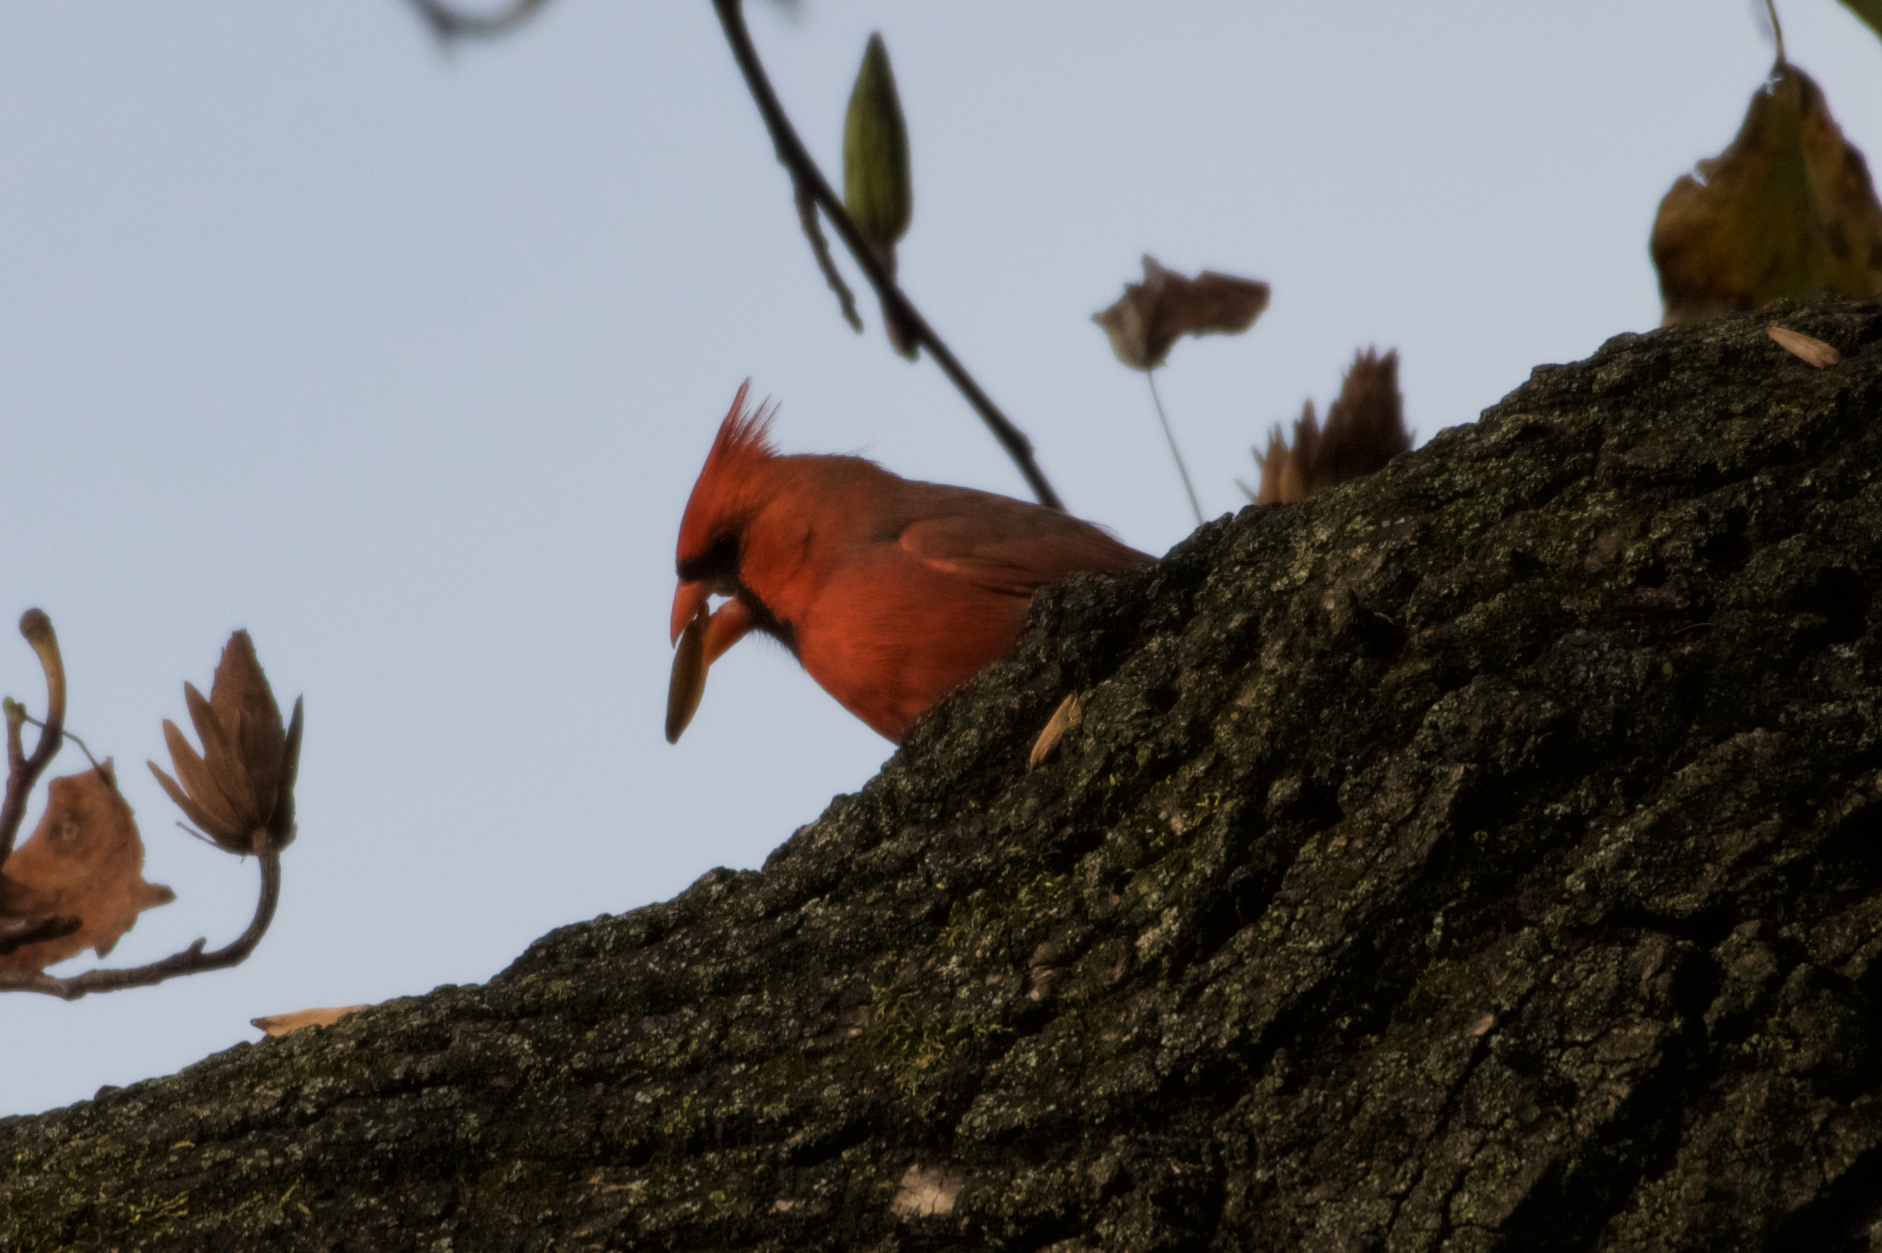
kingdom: Animalia
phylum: Chordata
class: Aves
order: Passeriformes
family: Cardinalidae
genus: Cardinalis
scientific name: Cardinalis cardinalis
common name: Northern cardinal
